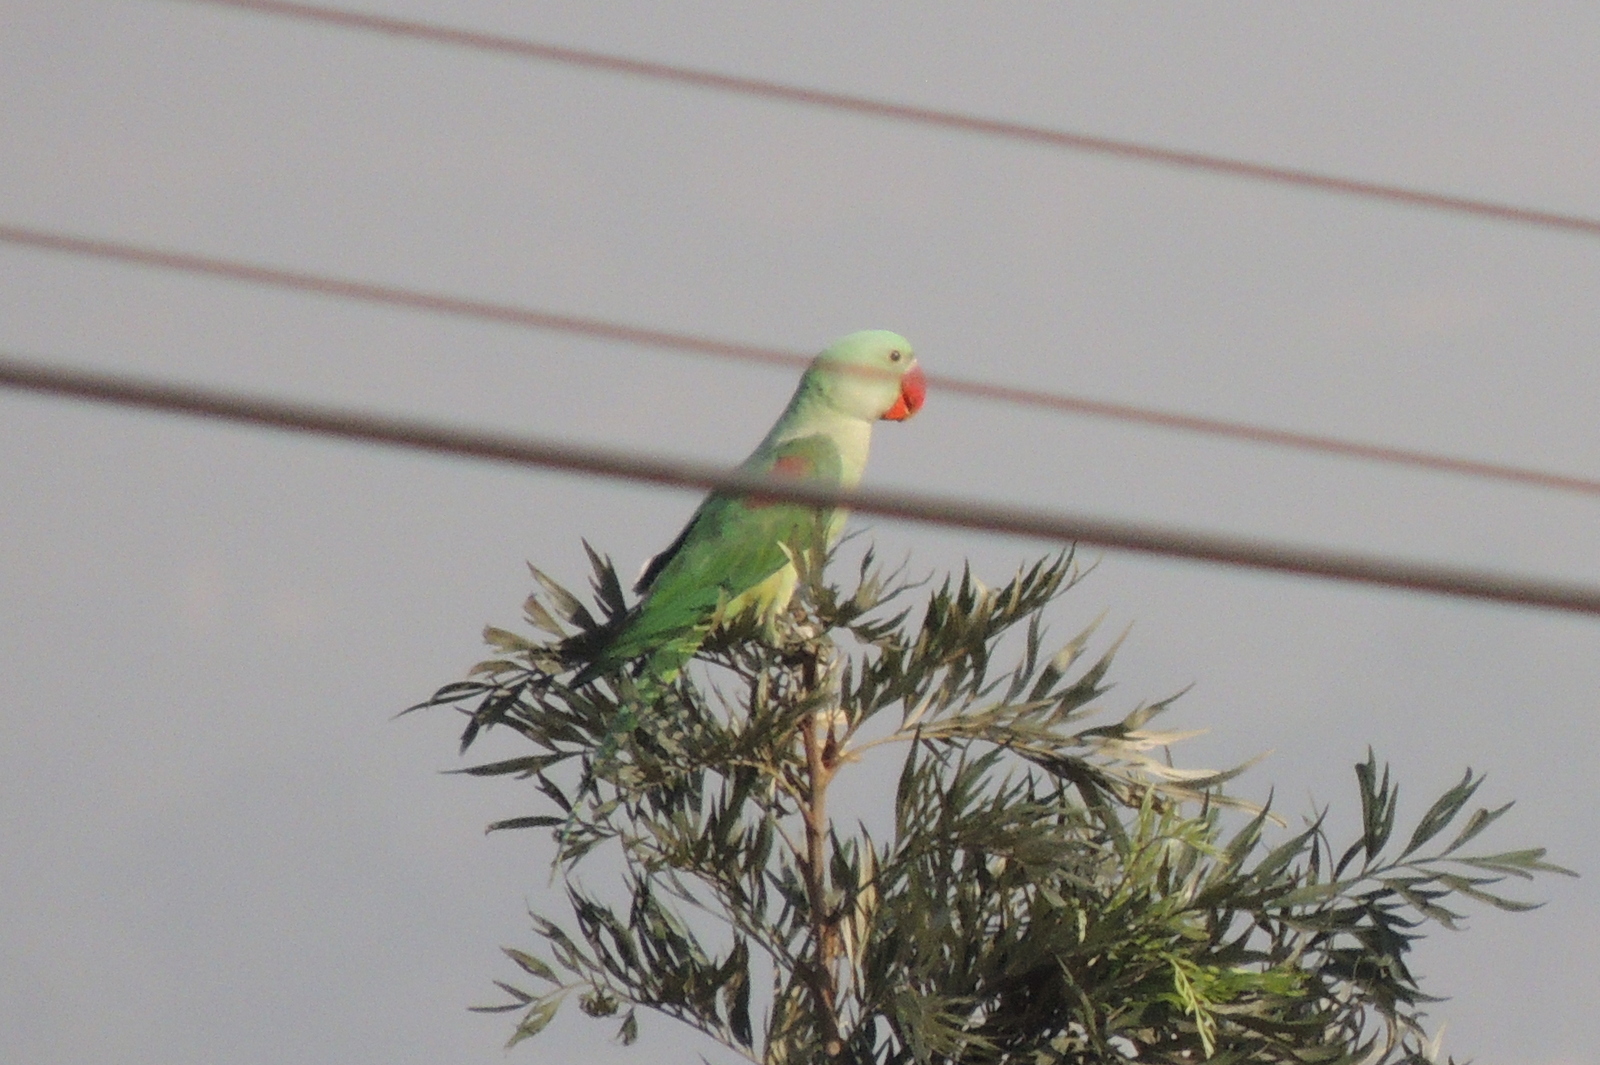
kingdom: Animalia
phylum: Chordata
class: Aves
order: Psittaciformes
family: Psittacidae
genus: Psittacula
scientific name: Psittacula eupatria
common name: Alexandrine parakeet
